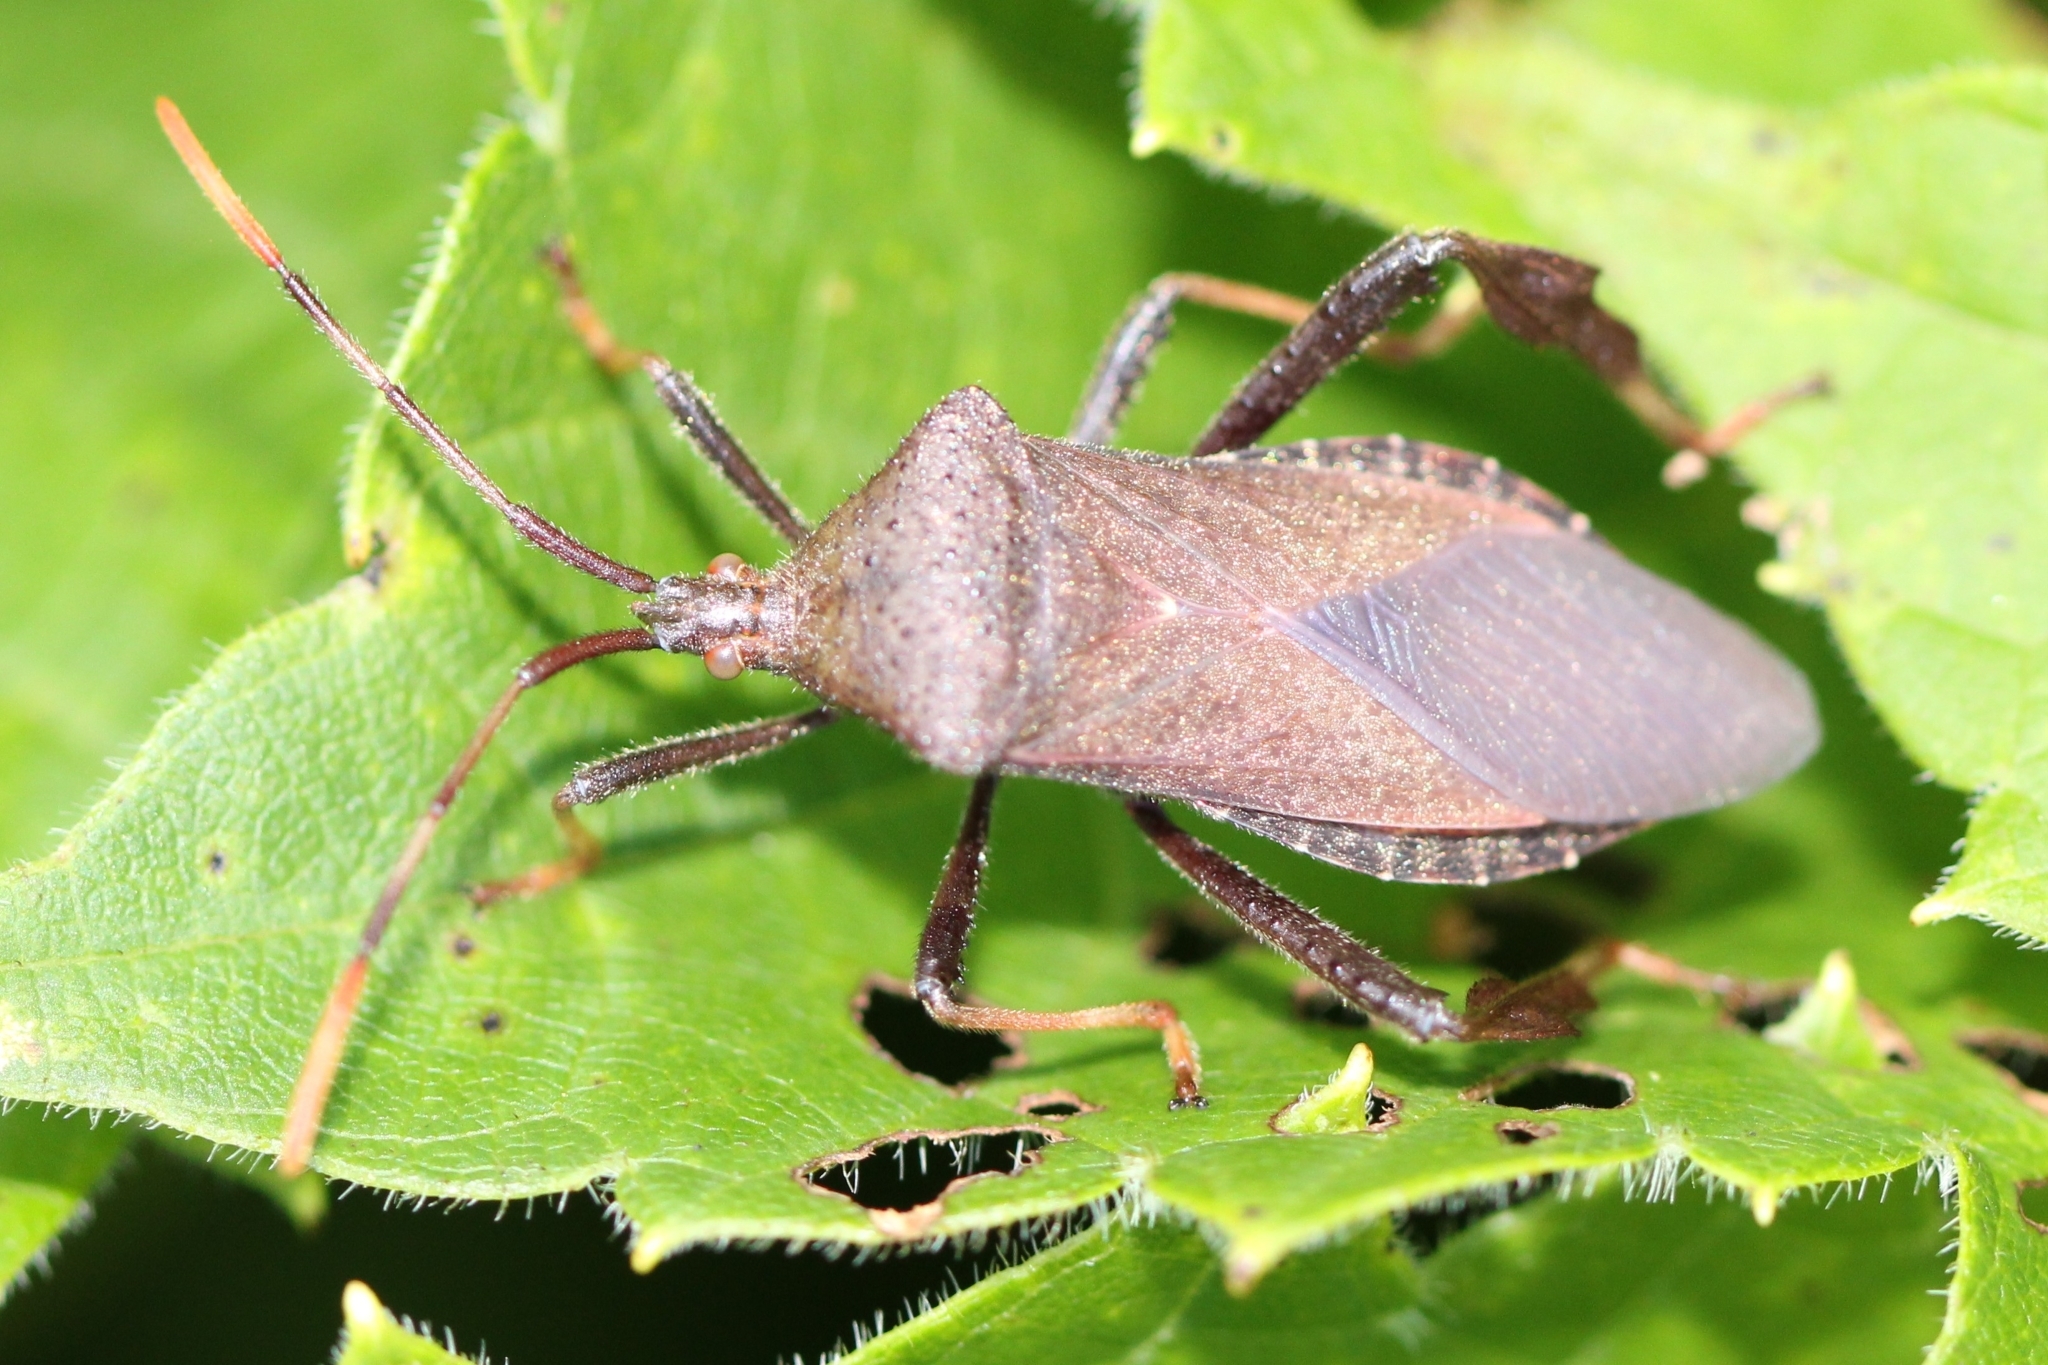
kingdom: Animalia
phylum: Arthropoda
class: Insecta
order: Hemiptera
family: Coreidae
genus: Acanthocephala
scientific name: Acanthocephala terminalis
